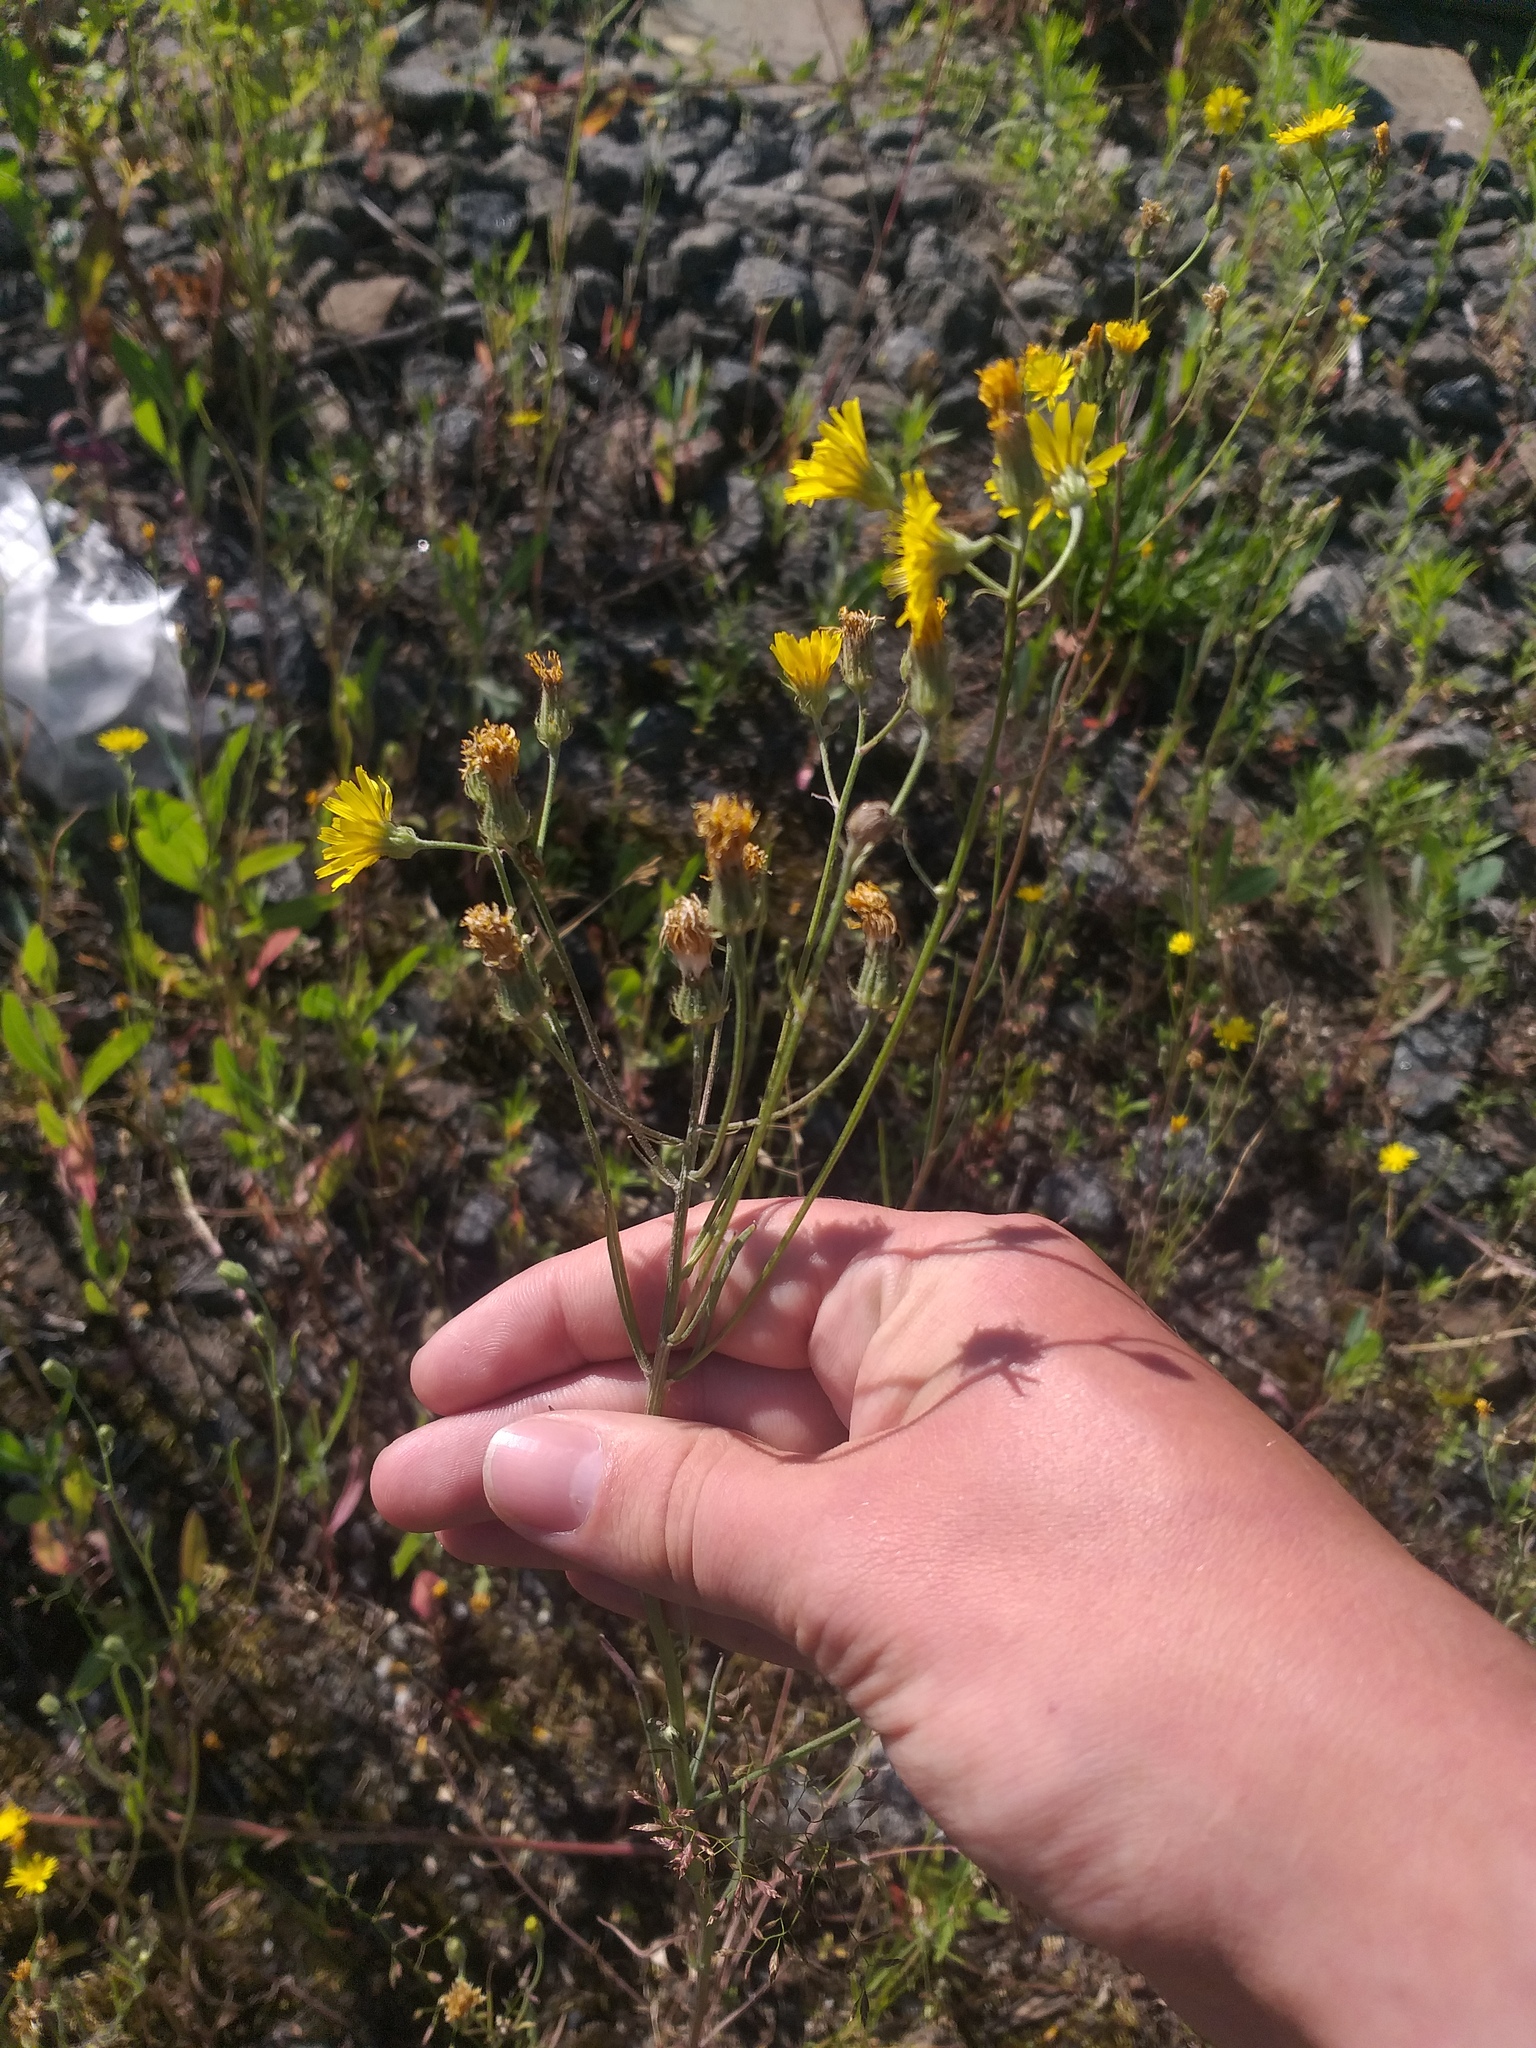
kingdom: Plantae
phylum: Tracheophyta
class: Magnoliopsida
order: Asterales
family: Asteraceae
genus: Crepis
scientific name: Crepis tectorum
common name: Narrow-leaved hawk's-beard
